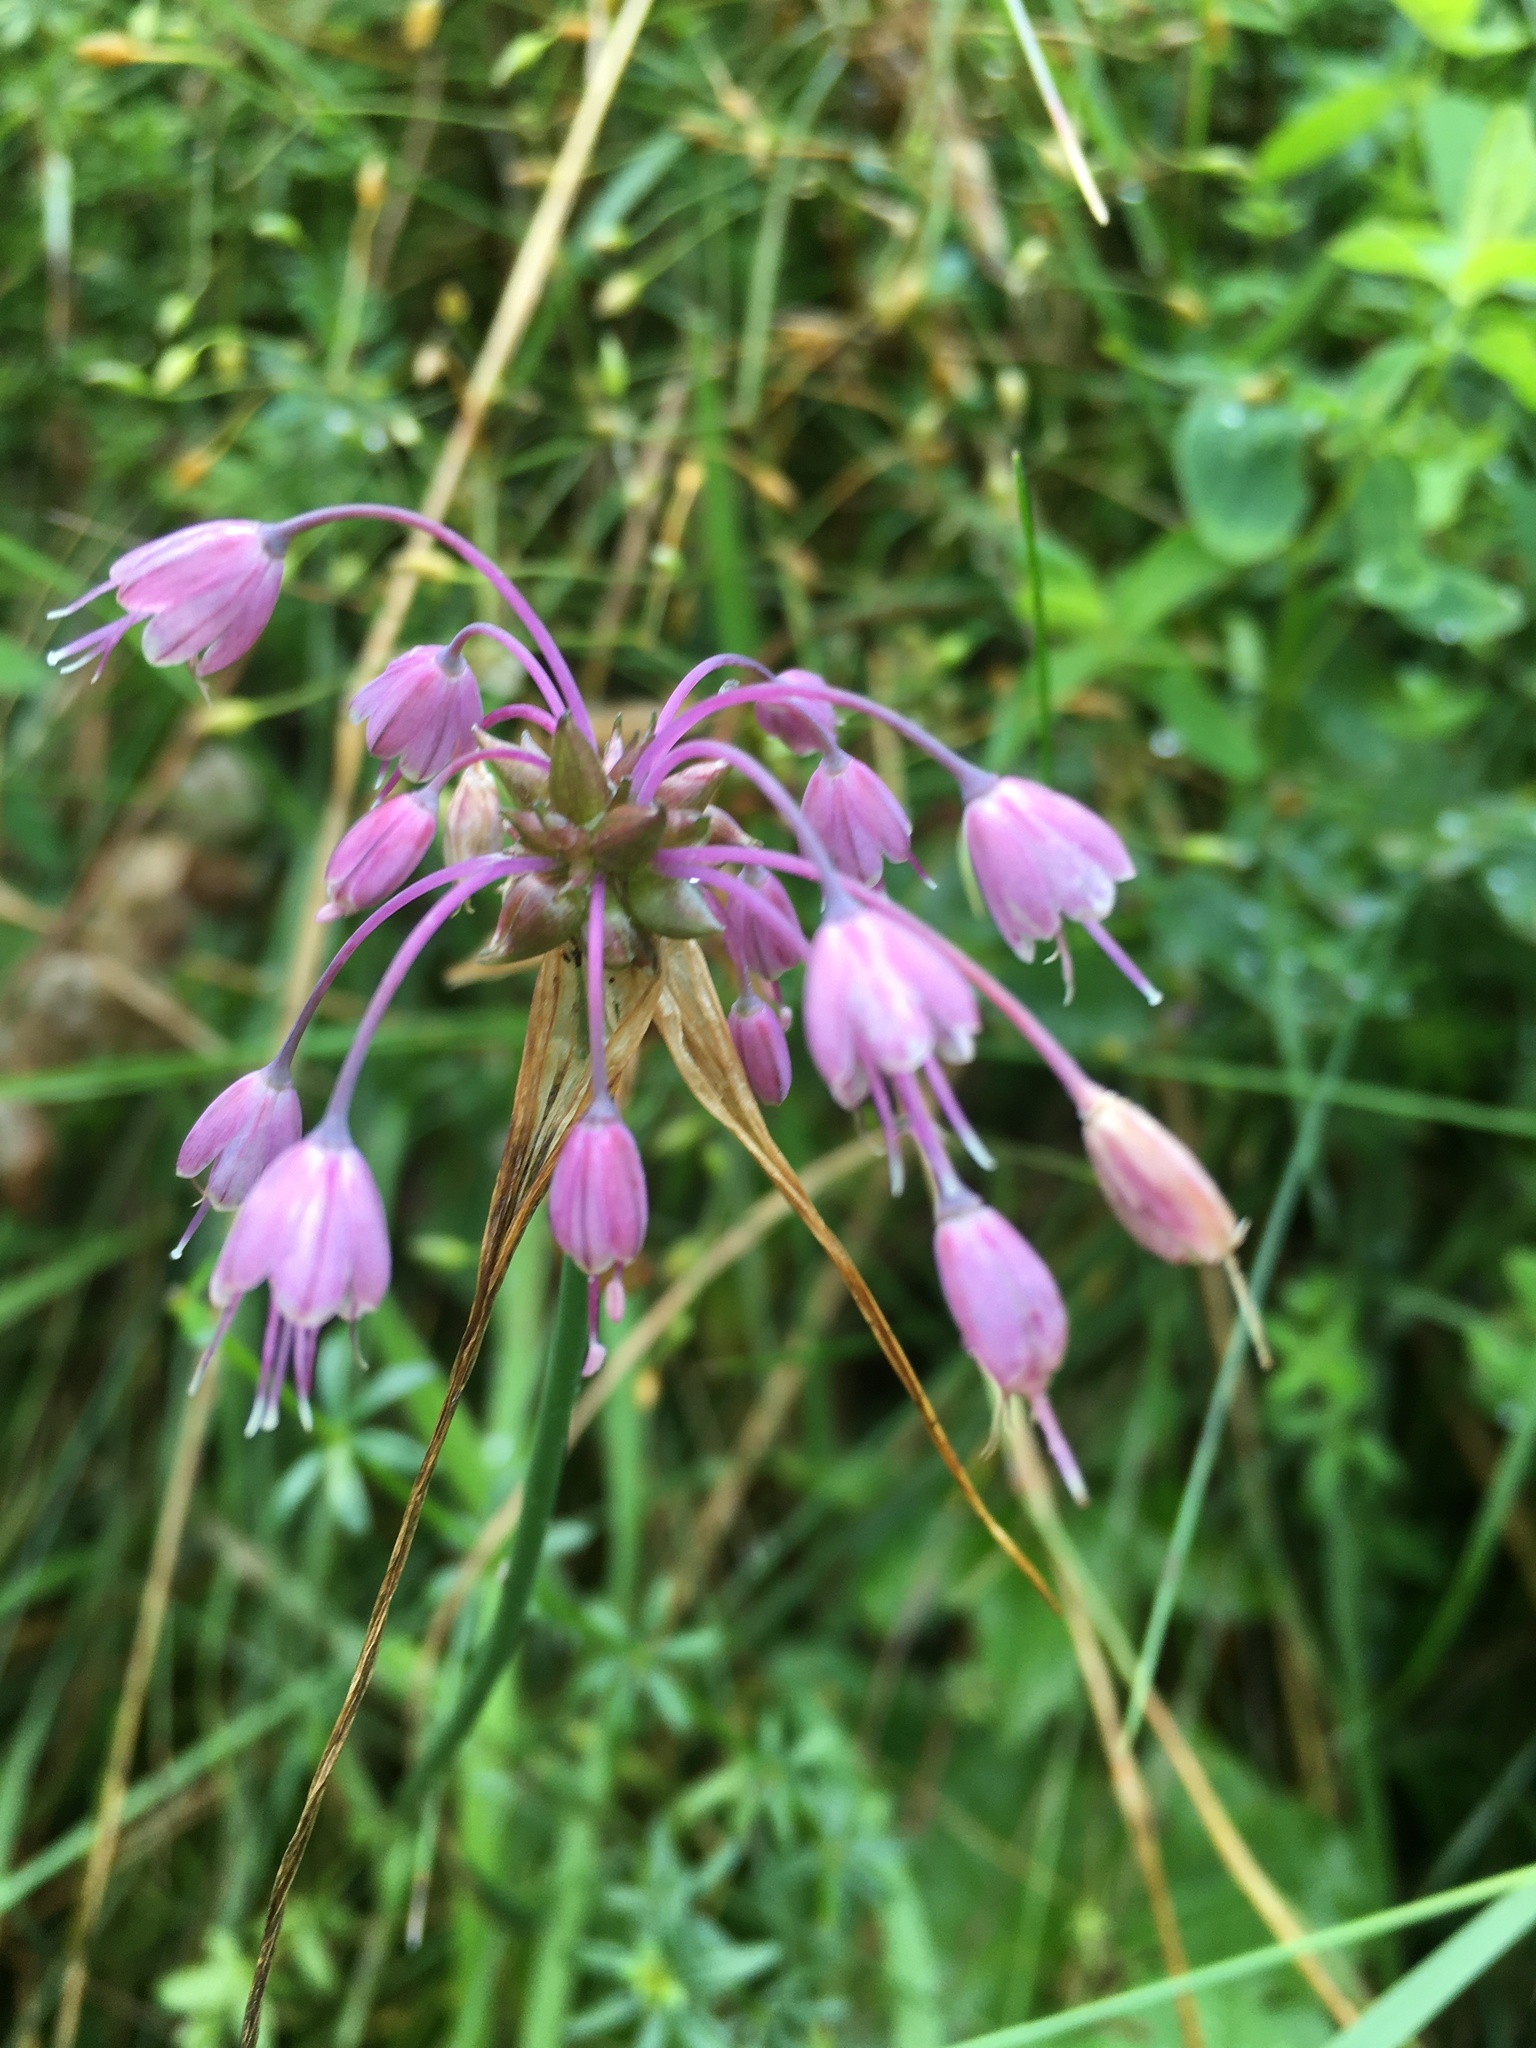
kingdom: Plantae
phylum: Tracheophyta
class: Liliopsida
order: Asparagales
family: Amaryllidaceae
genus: Allium
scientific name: Allium carinatum
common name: Keeled garlic
